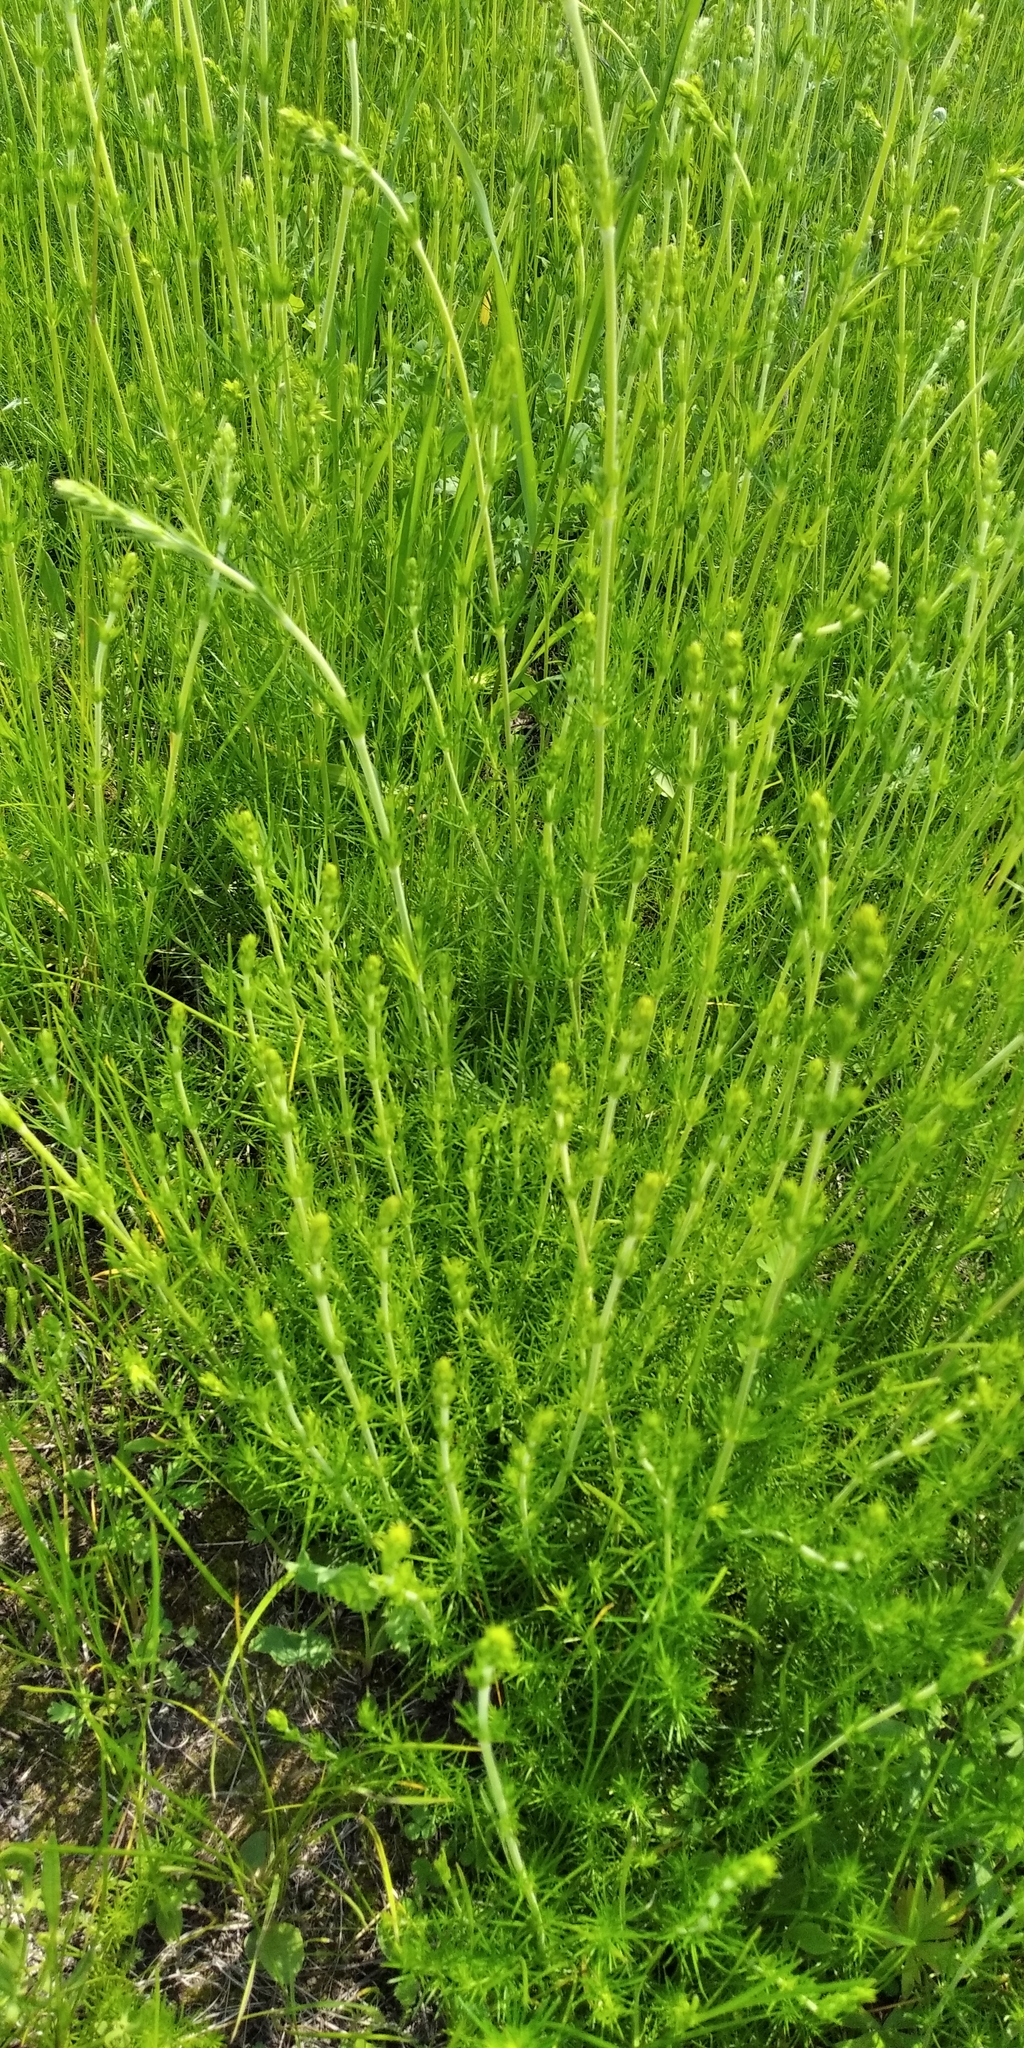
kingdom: Plantae
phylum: Tracheophyta
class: Magnoliopsida
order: Gentianales
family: Rubiaceae
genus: Galium
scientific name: Galium verum
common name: Lady's bedstraw
